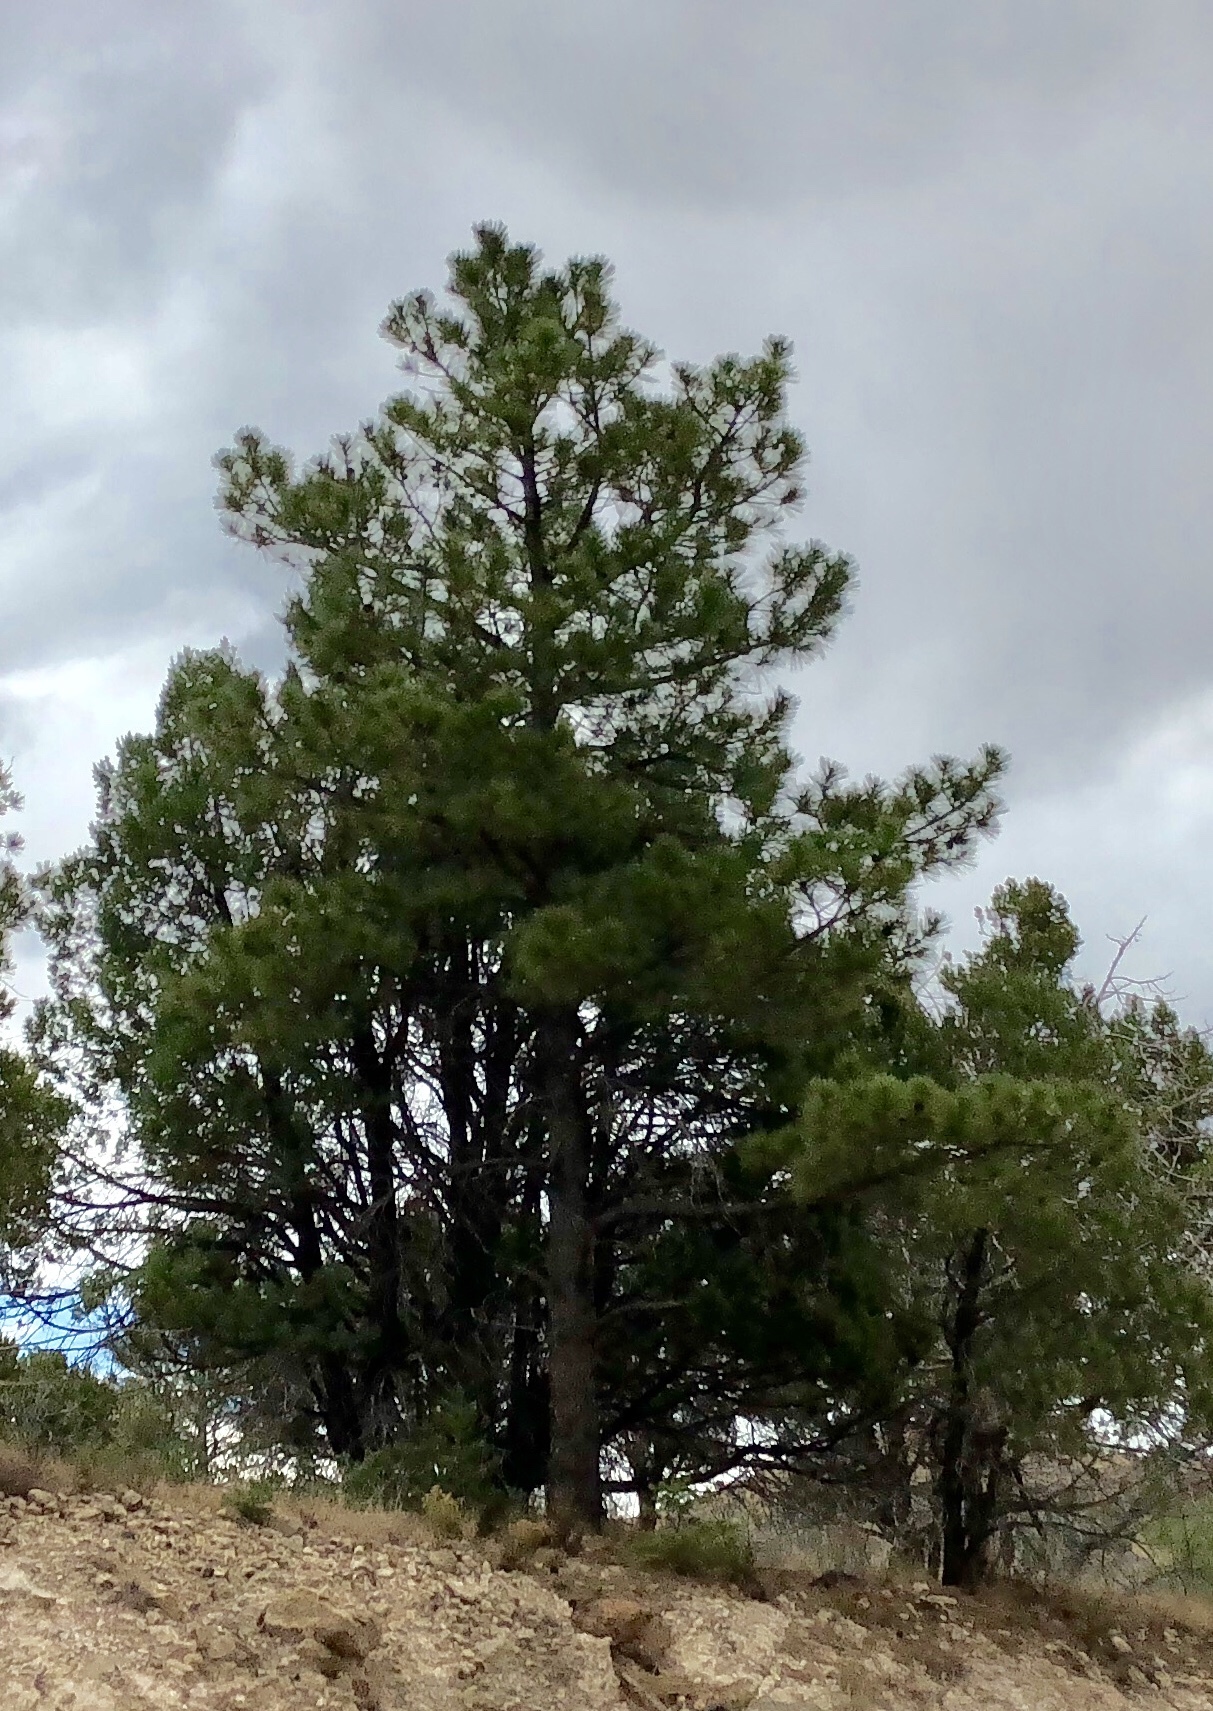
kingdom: Plantae
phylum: Tracheophyta
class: Pinopsida
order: Pinales
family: Pinaceae
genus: Pinus
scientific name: Pinus ponderosa
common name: Western yellow-pine
